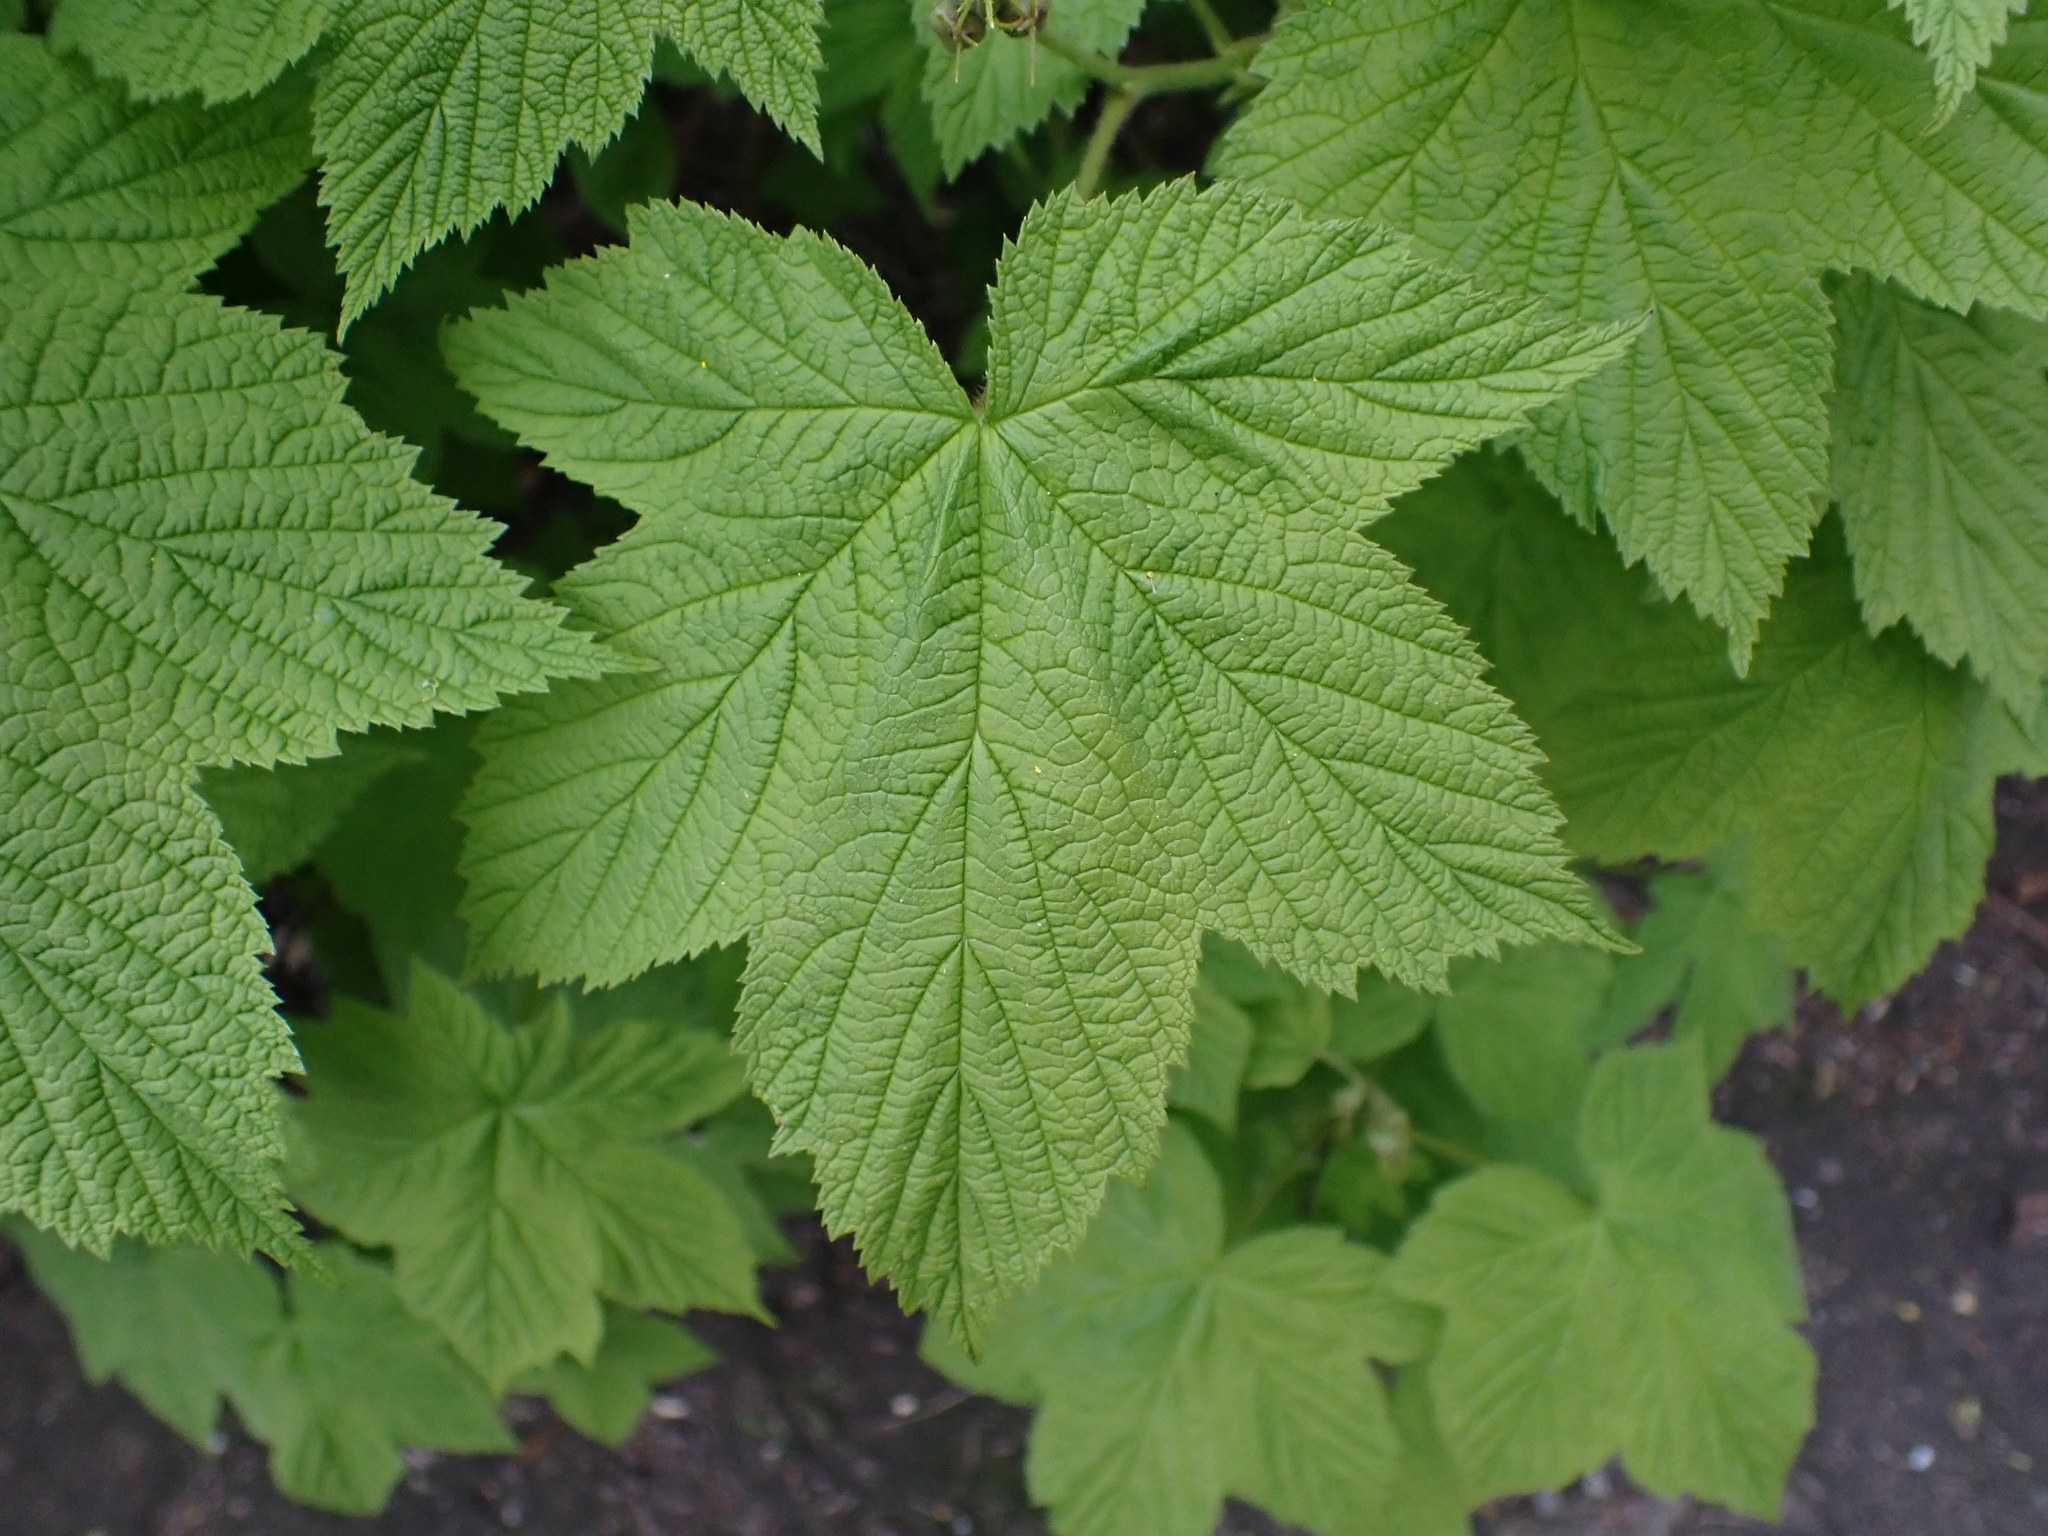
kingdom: Plantae
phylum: Tracheophyta
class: Magnoliopsida
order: Rosales
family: Rosaceae
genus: Rubus
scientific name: Rubus parviflorus
